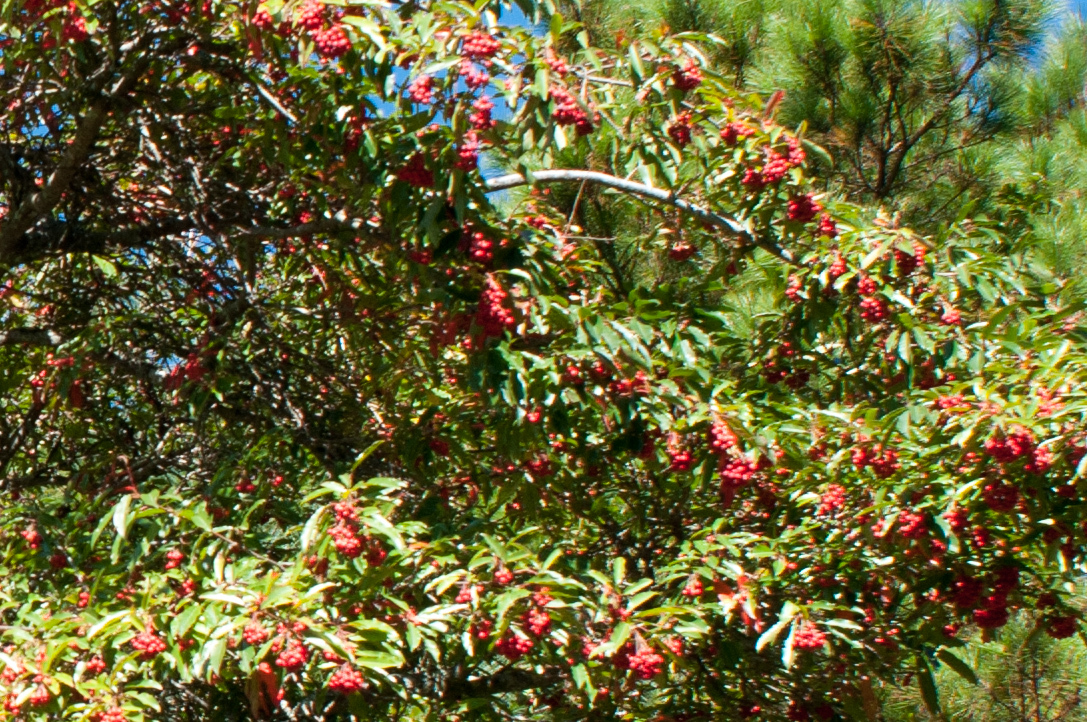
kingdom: Plantae
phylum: Tracheophyta
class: Magnoliopsida
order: Rosales
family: Rosaceae
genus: Stranvaesia
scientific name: Stranvaesia davidiana
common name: Chinese photinia
